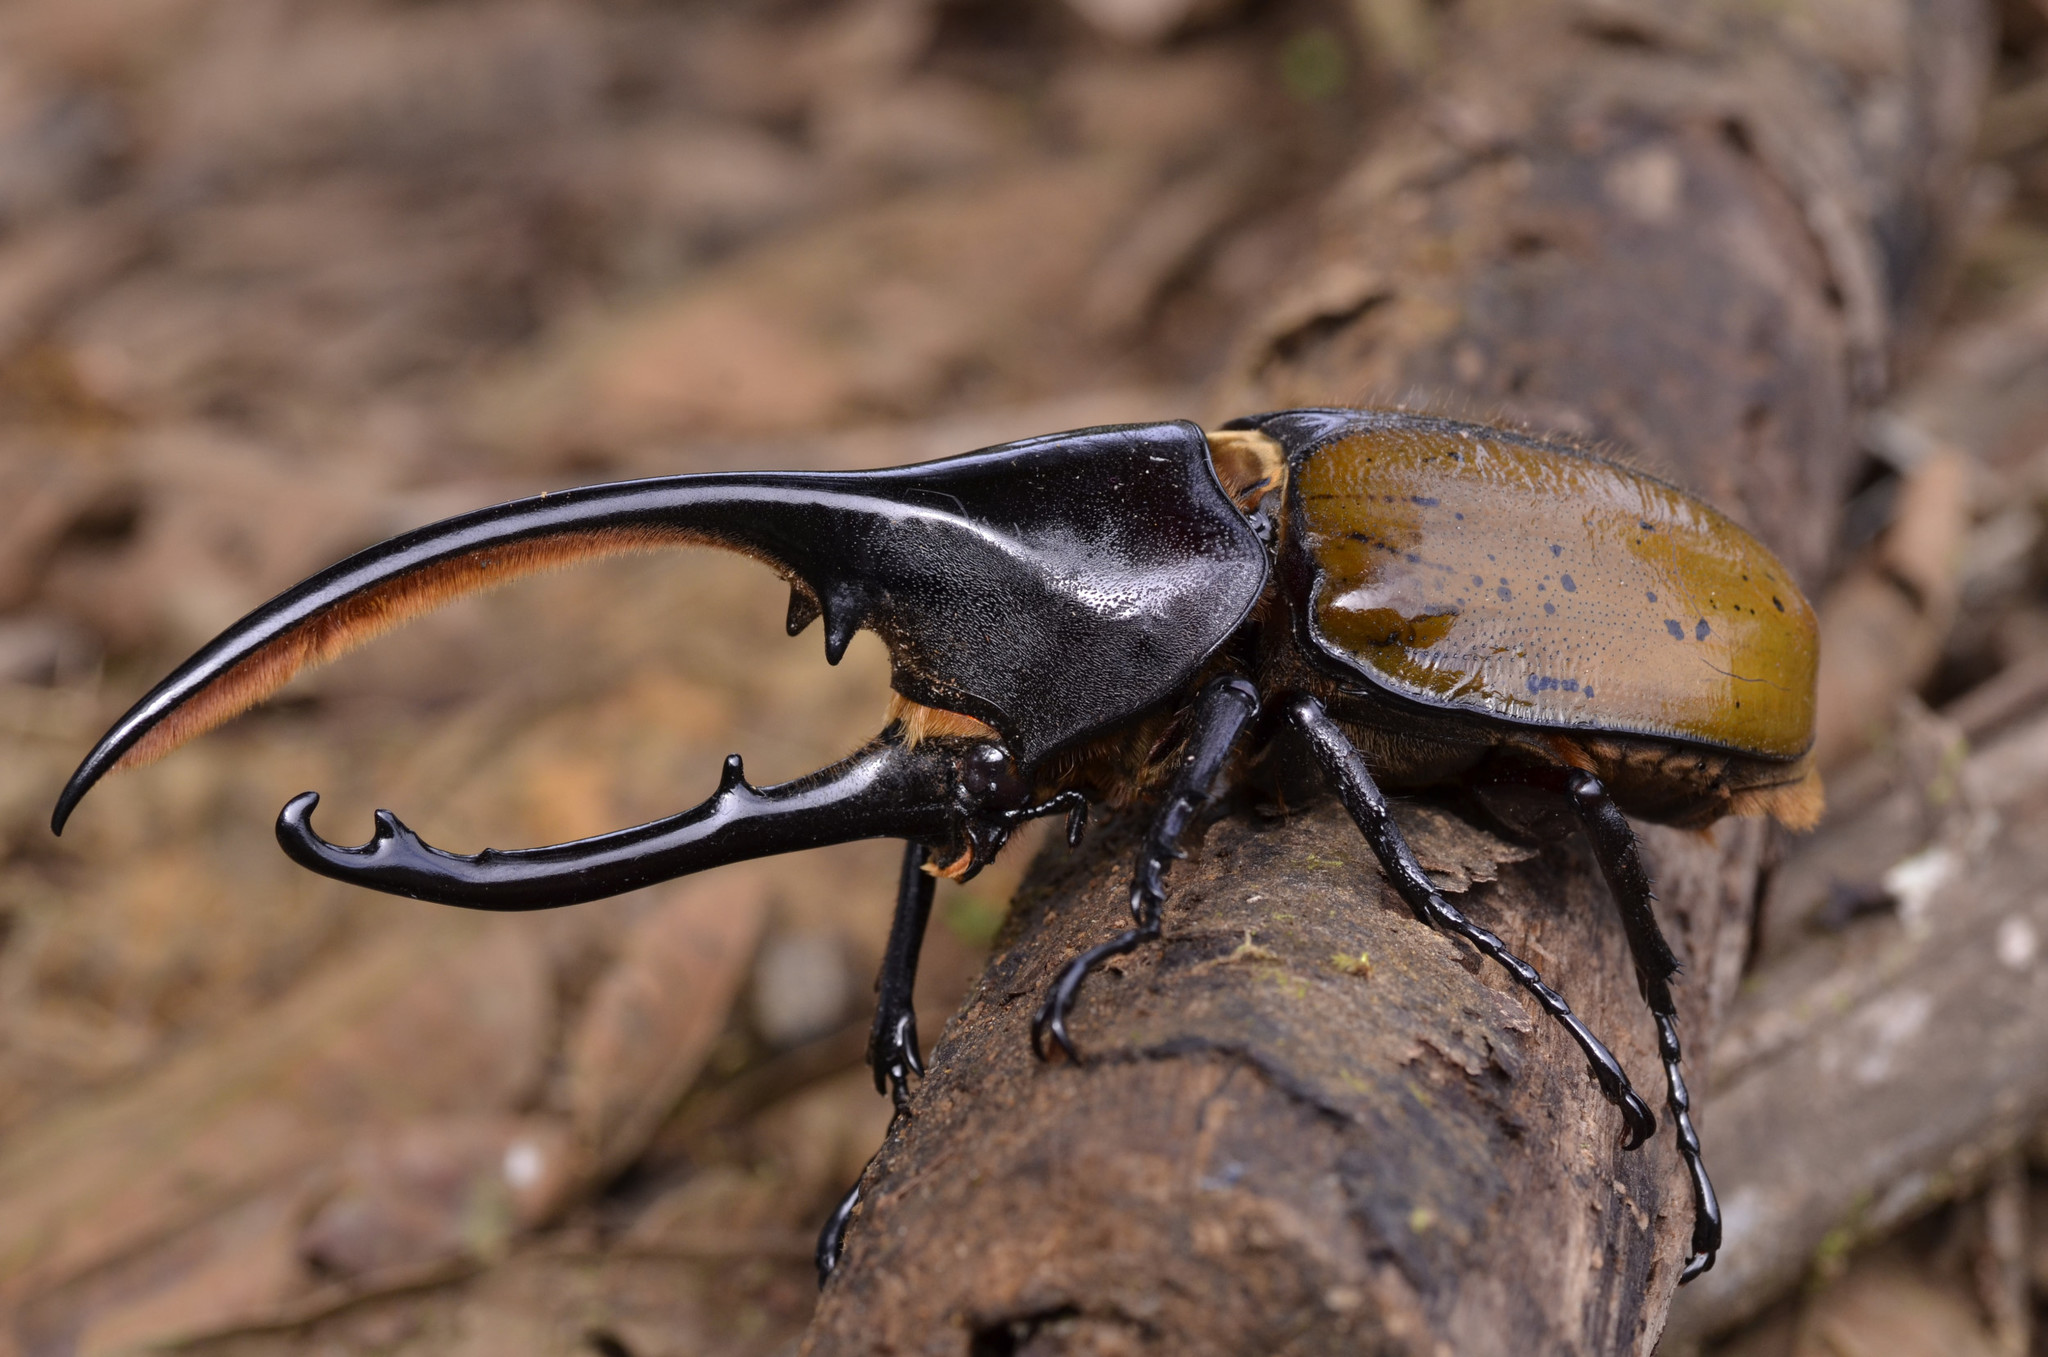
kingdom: Animalia
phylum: Arthropoda
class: Insecta
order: Coleoptera
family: Scarabaeidae
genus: Dynastes
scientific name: Dynastes
